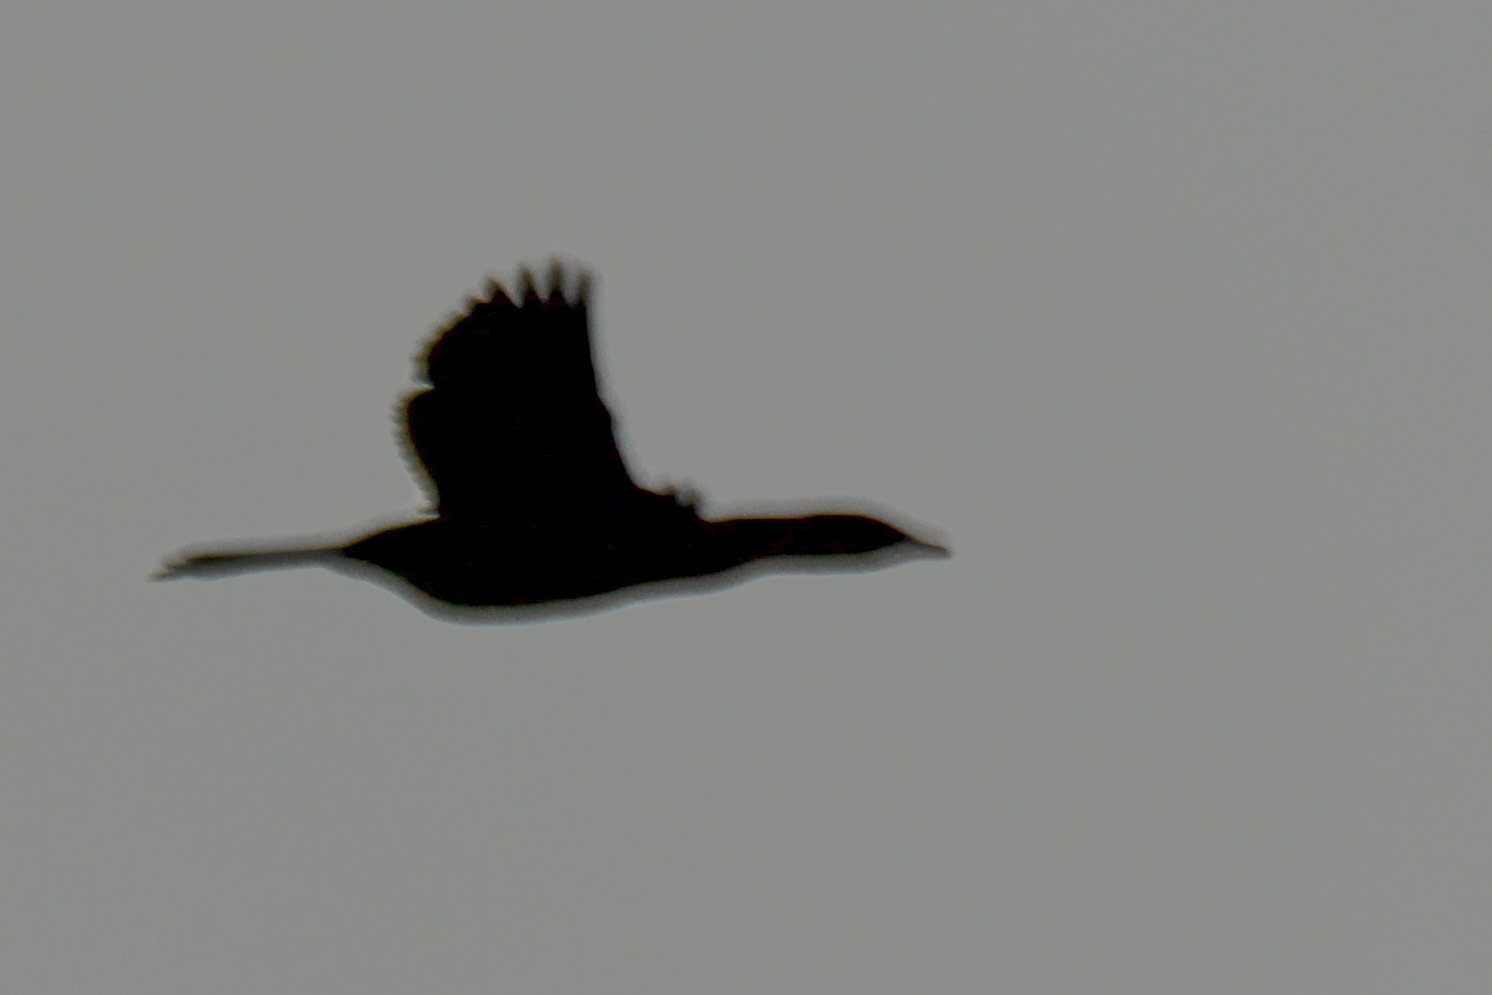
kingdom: Animalia
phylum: Chordata
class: Aves
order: Suliformes
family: Phalacrocoracidae
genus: Microcarbo
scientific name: Microcarbo pygmaeus
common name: Pygmy cormorant
